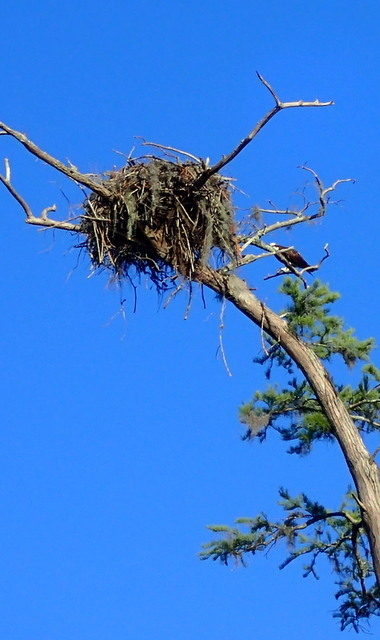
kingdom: Animalia
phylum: Chordata
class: Aves
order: Accipitriformes
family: Pandionidae
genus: Pandion
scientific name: Pandion haliaetus
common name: Osprey
